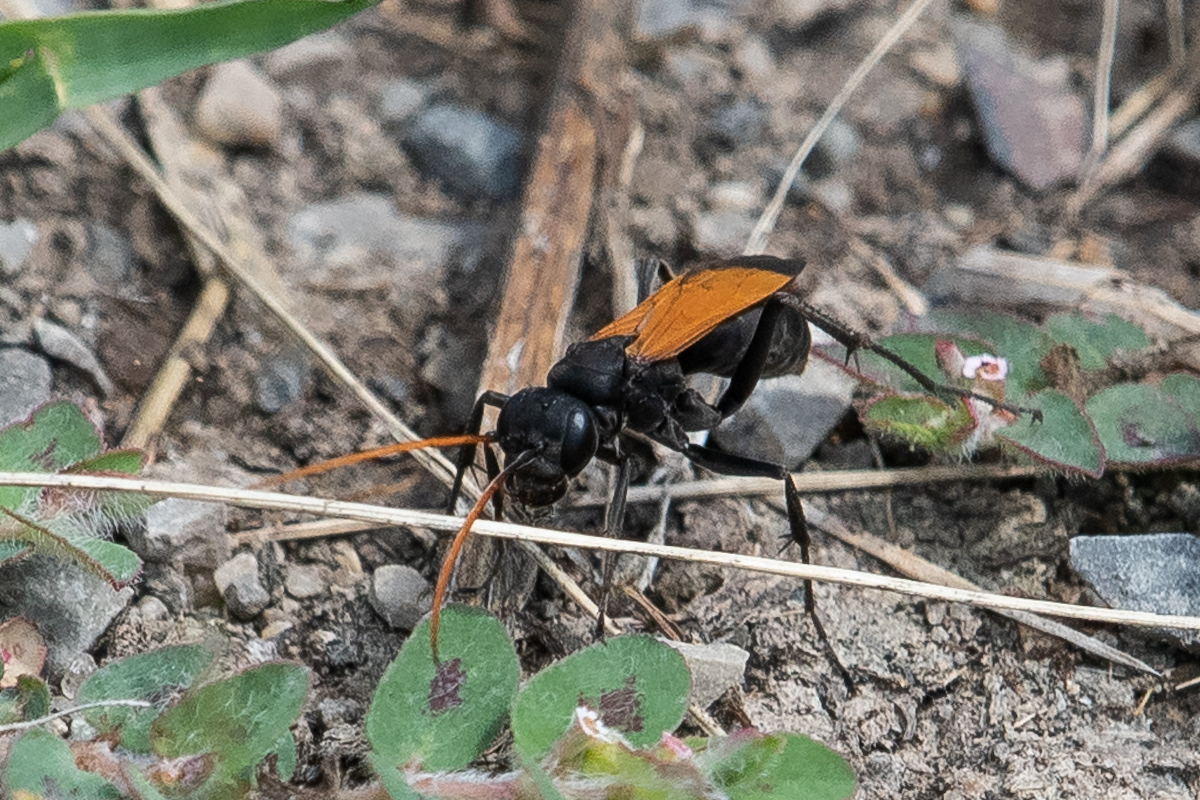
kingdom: Animalia
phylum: Arthropoda
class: Insecta
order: Hymenoptera
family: Pompilidae
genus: Cryptocheilus
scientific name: Cryptocheilus attenuatum
